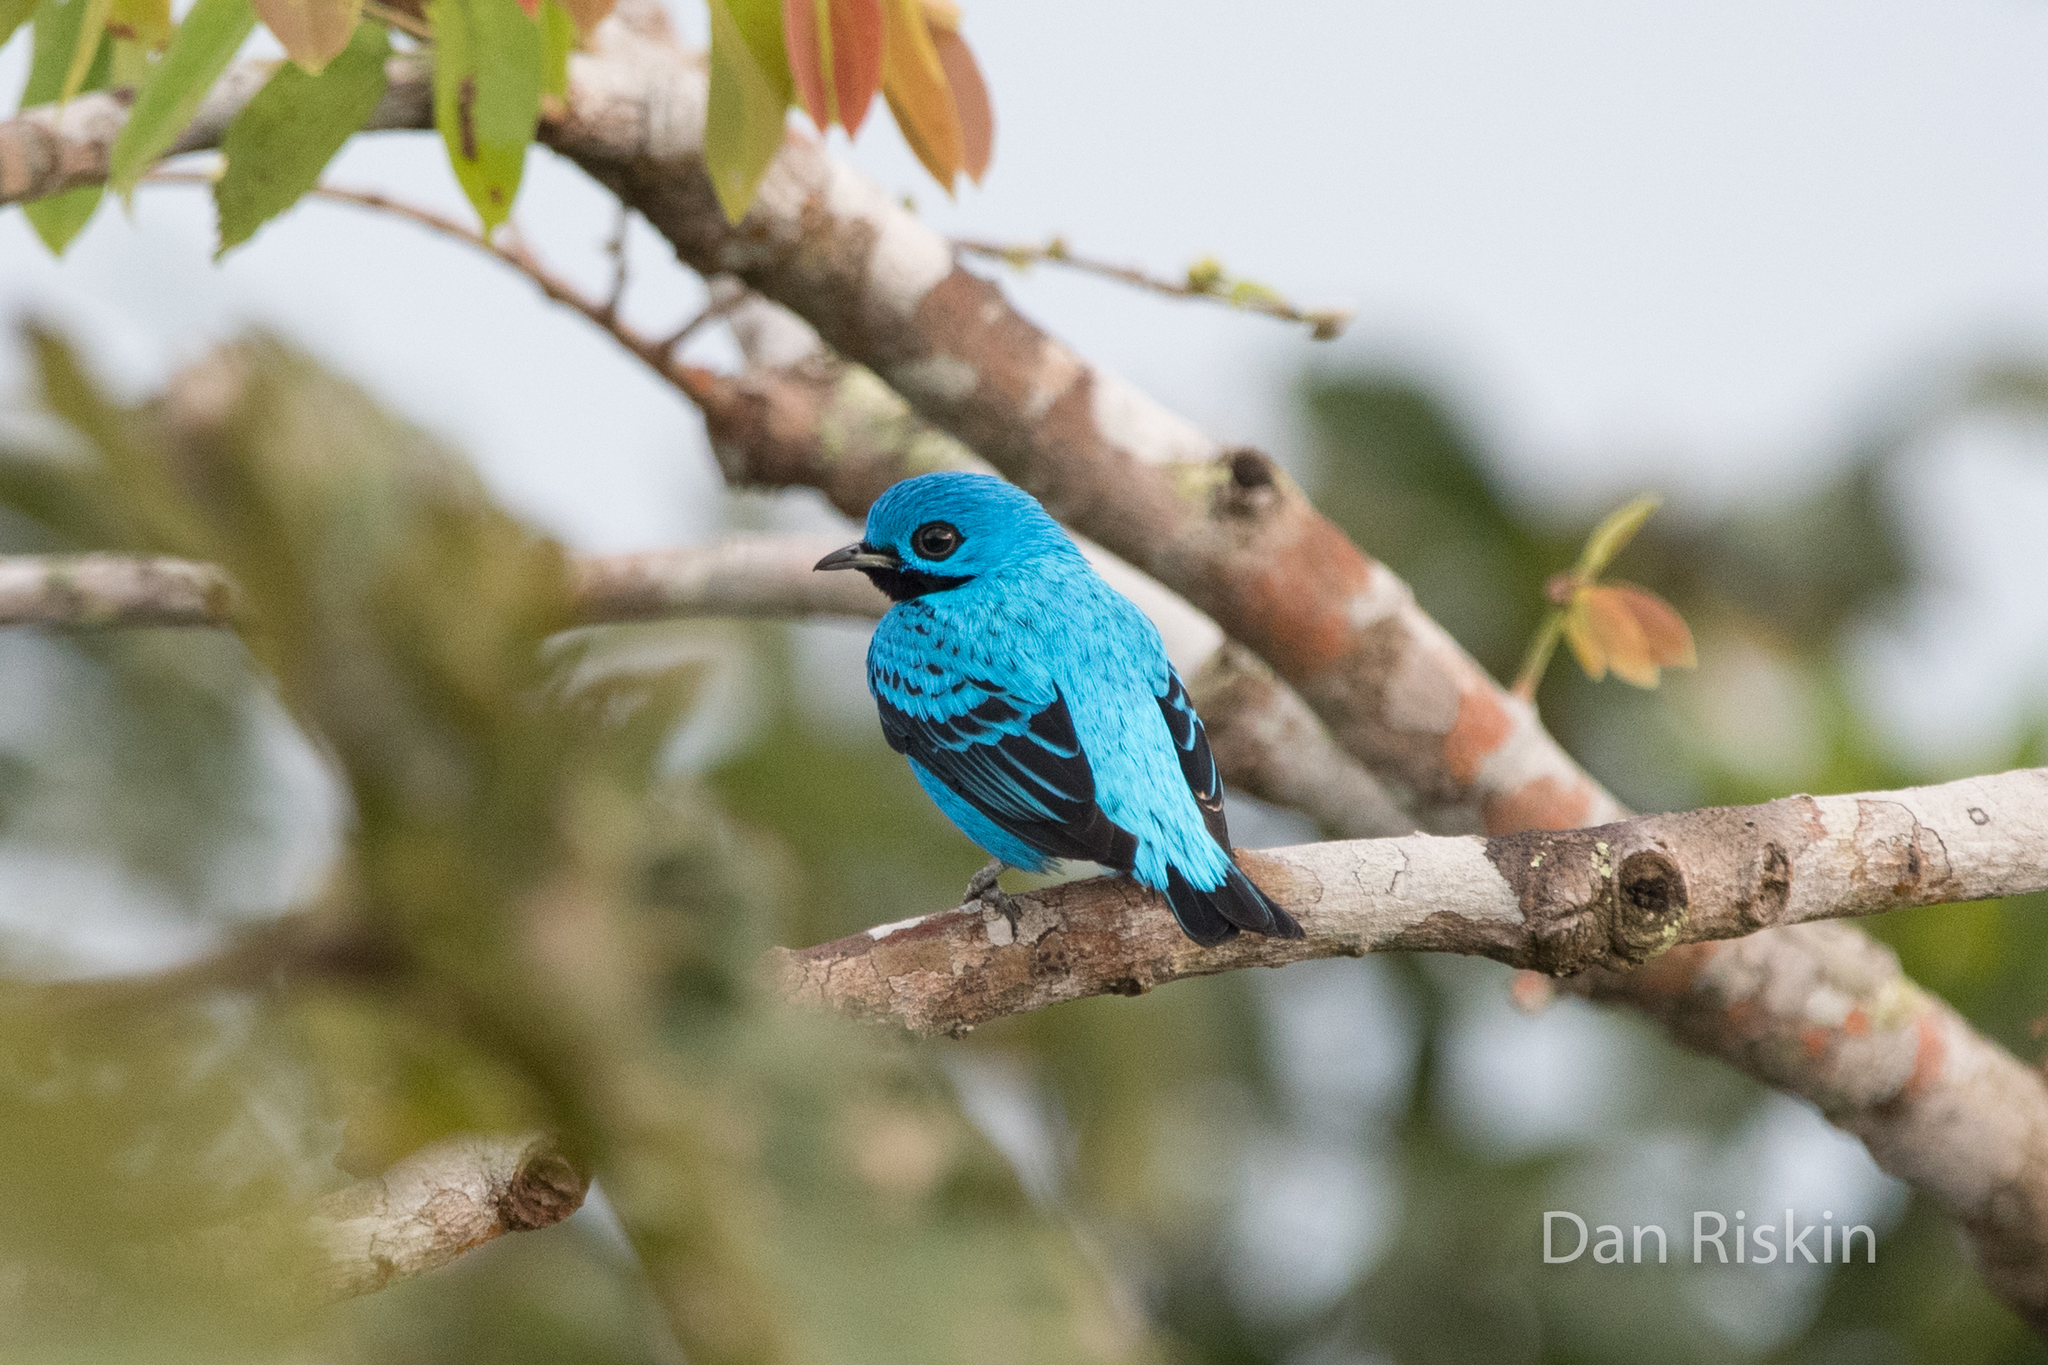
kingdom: Animalia
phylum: Chordata
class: Aves
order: Passeriformes
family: Cotingidae
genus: Cotinga
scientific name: Cotinga nattererii
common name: Blue cotinga
